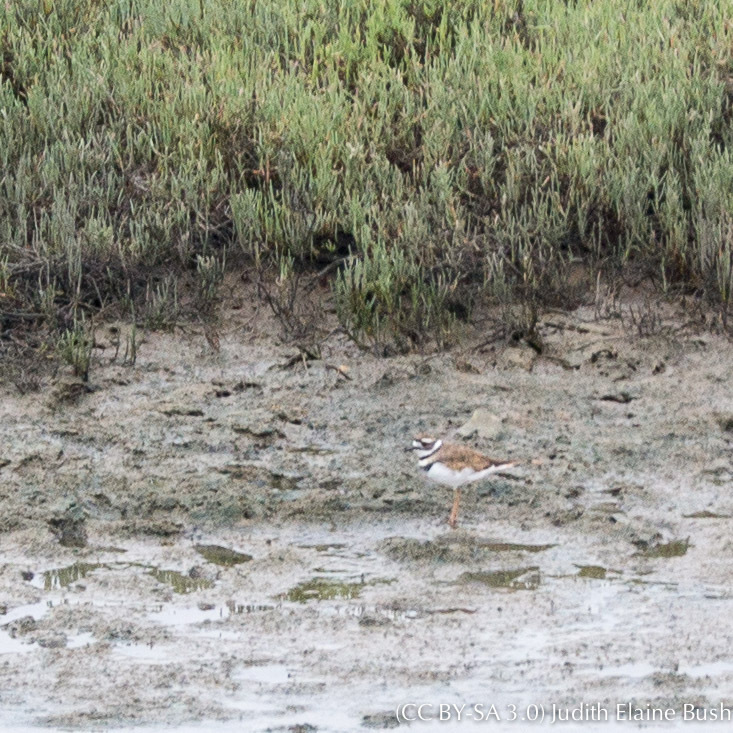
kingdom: Animalia
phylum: Chordata
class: Aves
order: Charadriiformes
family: Charadriidae
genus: Charadrius
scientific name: Charadrius vociferus
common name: Killdeer
